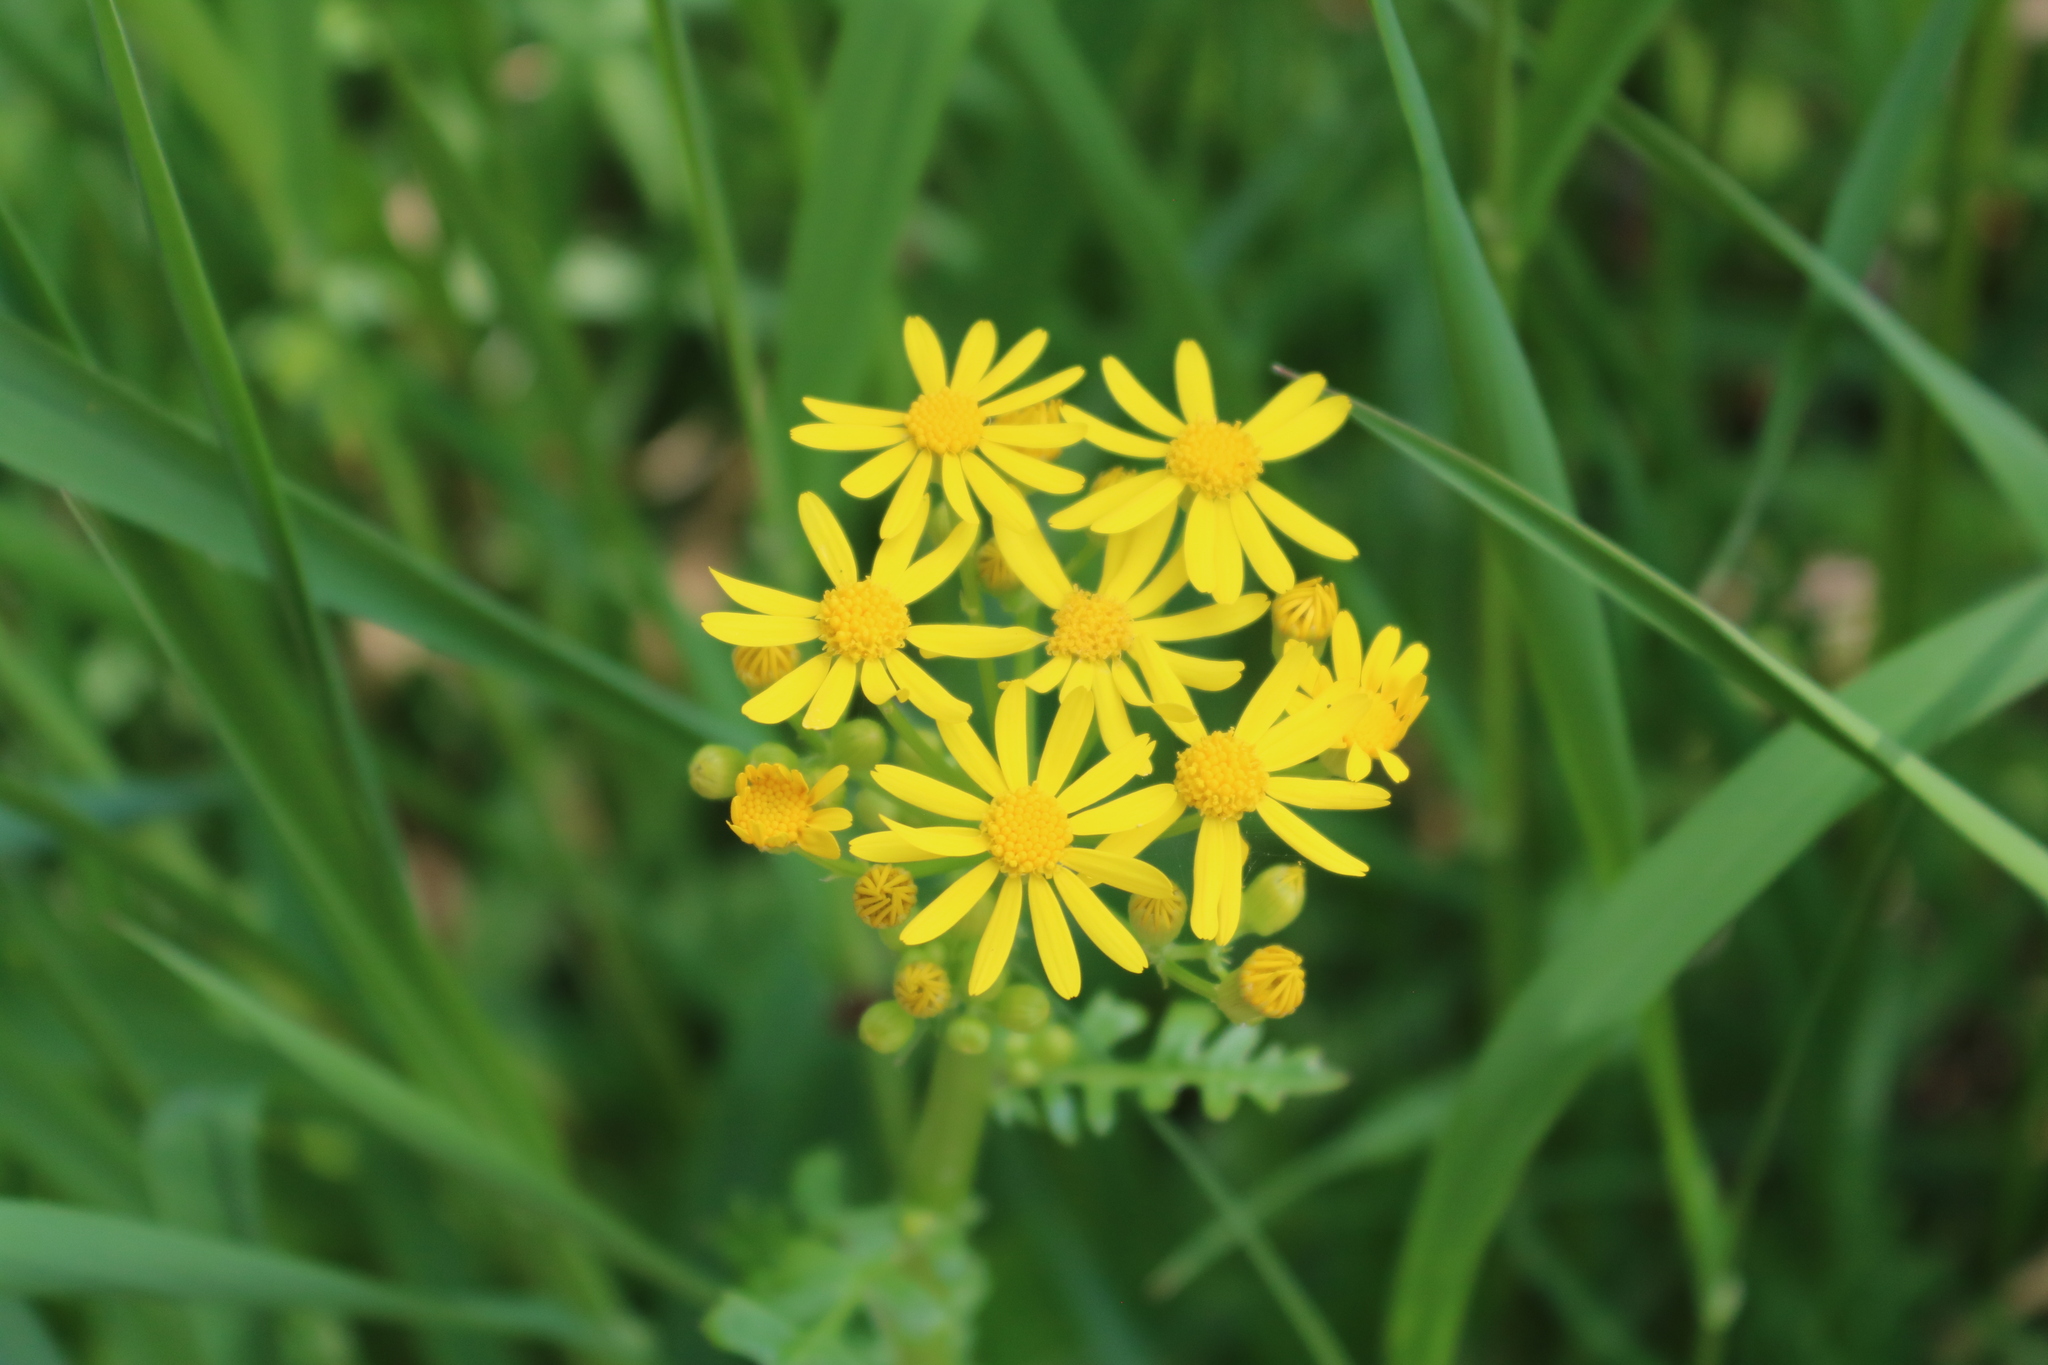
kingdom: Plantae
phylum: Tracheophyta
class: Magnoliopsida
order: Asterales
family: Asteraceae
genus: Packera
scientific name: Packera glabella
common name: Butterweed
